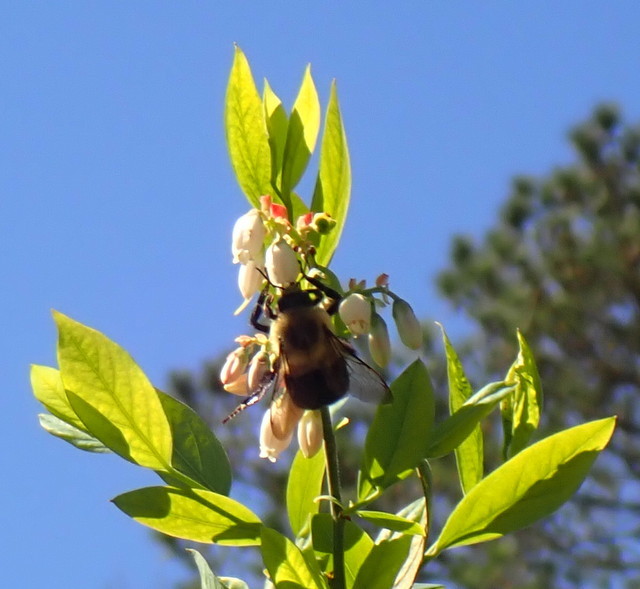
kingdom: Animalia
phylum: Arthropoda
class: Insecta
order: Hymenoptera
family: Apidae
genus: Bombus
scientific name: Bombus impatiens
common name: Common eastern bumble bee
